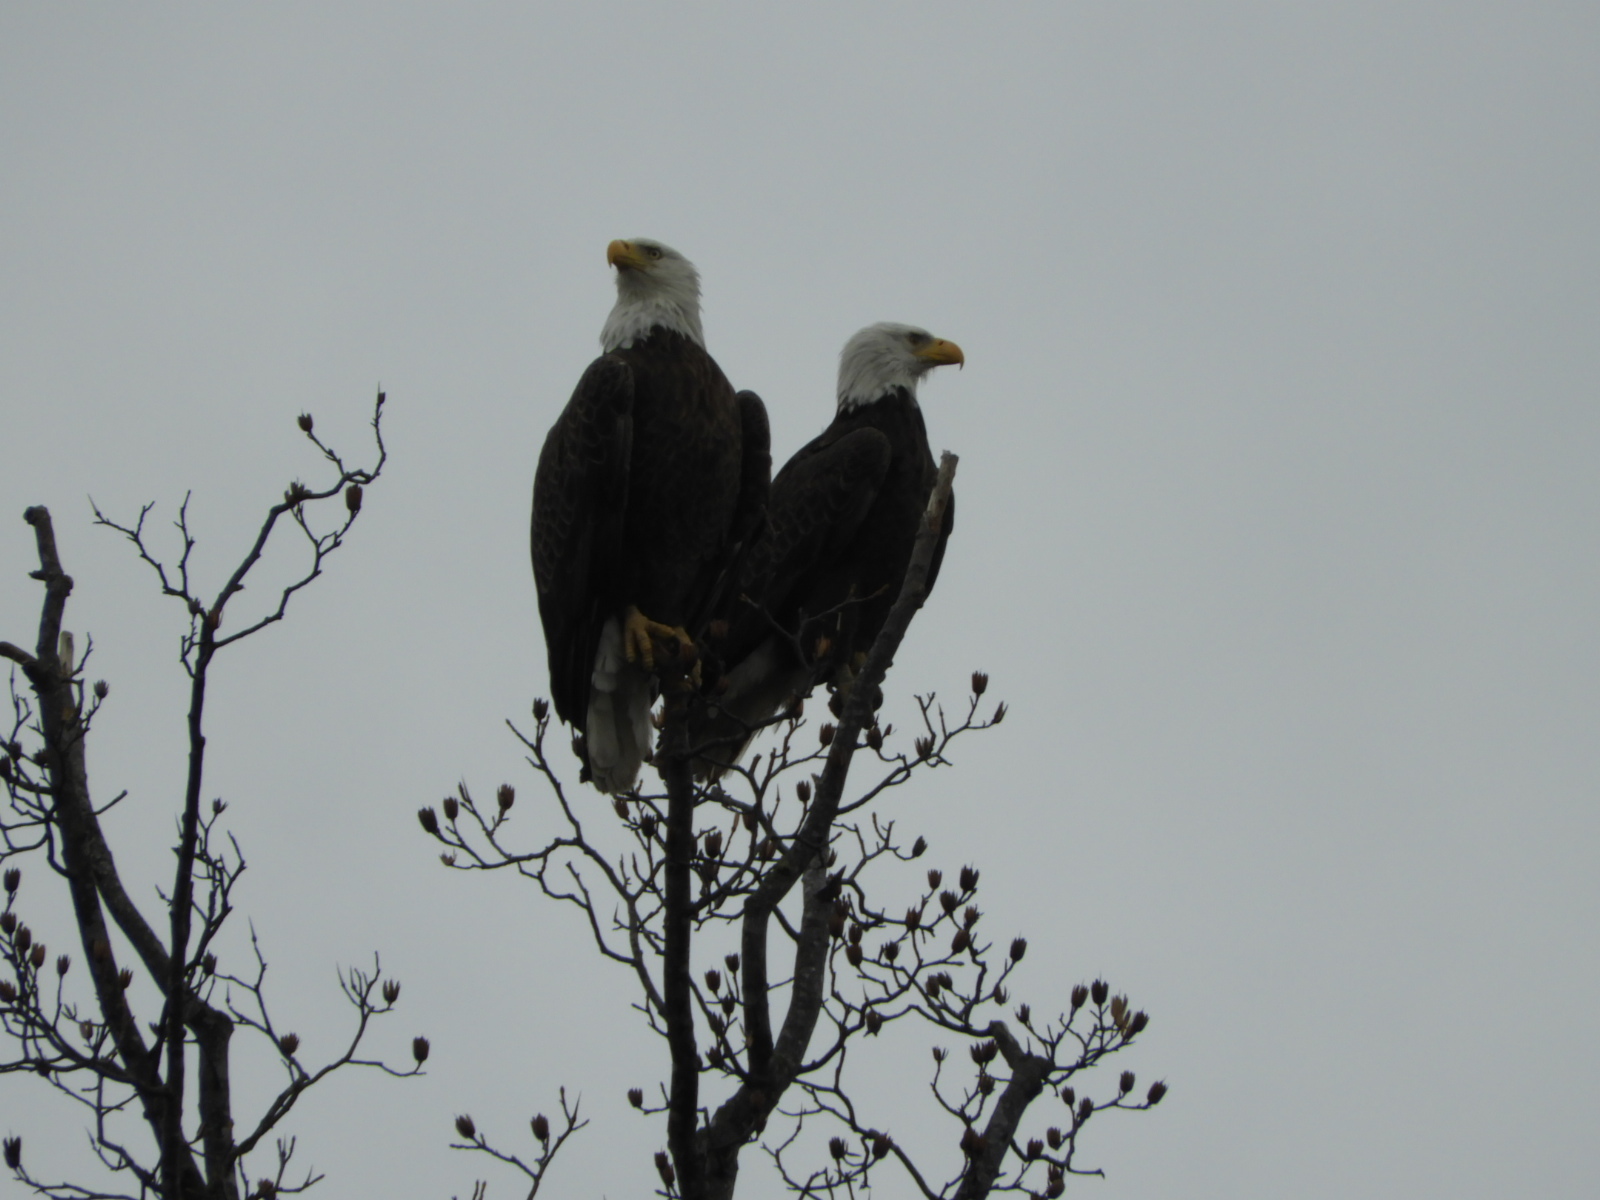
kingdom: Animalia
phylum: Chordata
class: Aves
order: Accipitriformes
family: Accipitridae
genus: Haliaeetus
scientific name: Haliaeetus leucocephalus
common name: Bald eagle
